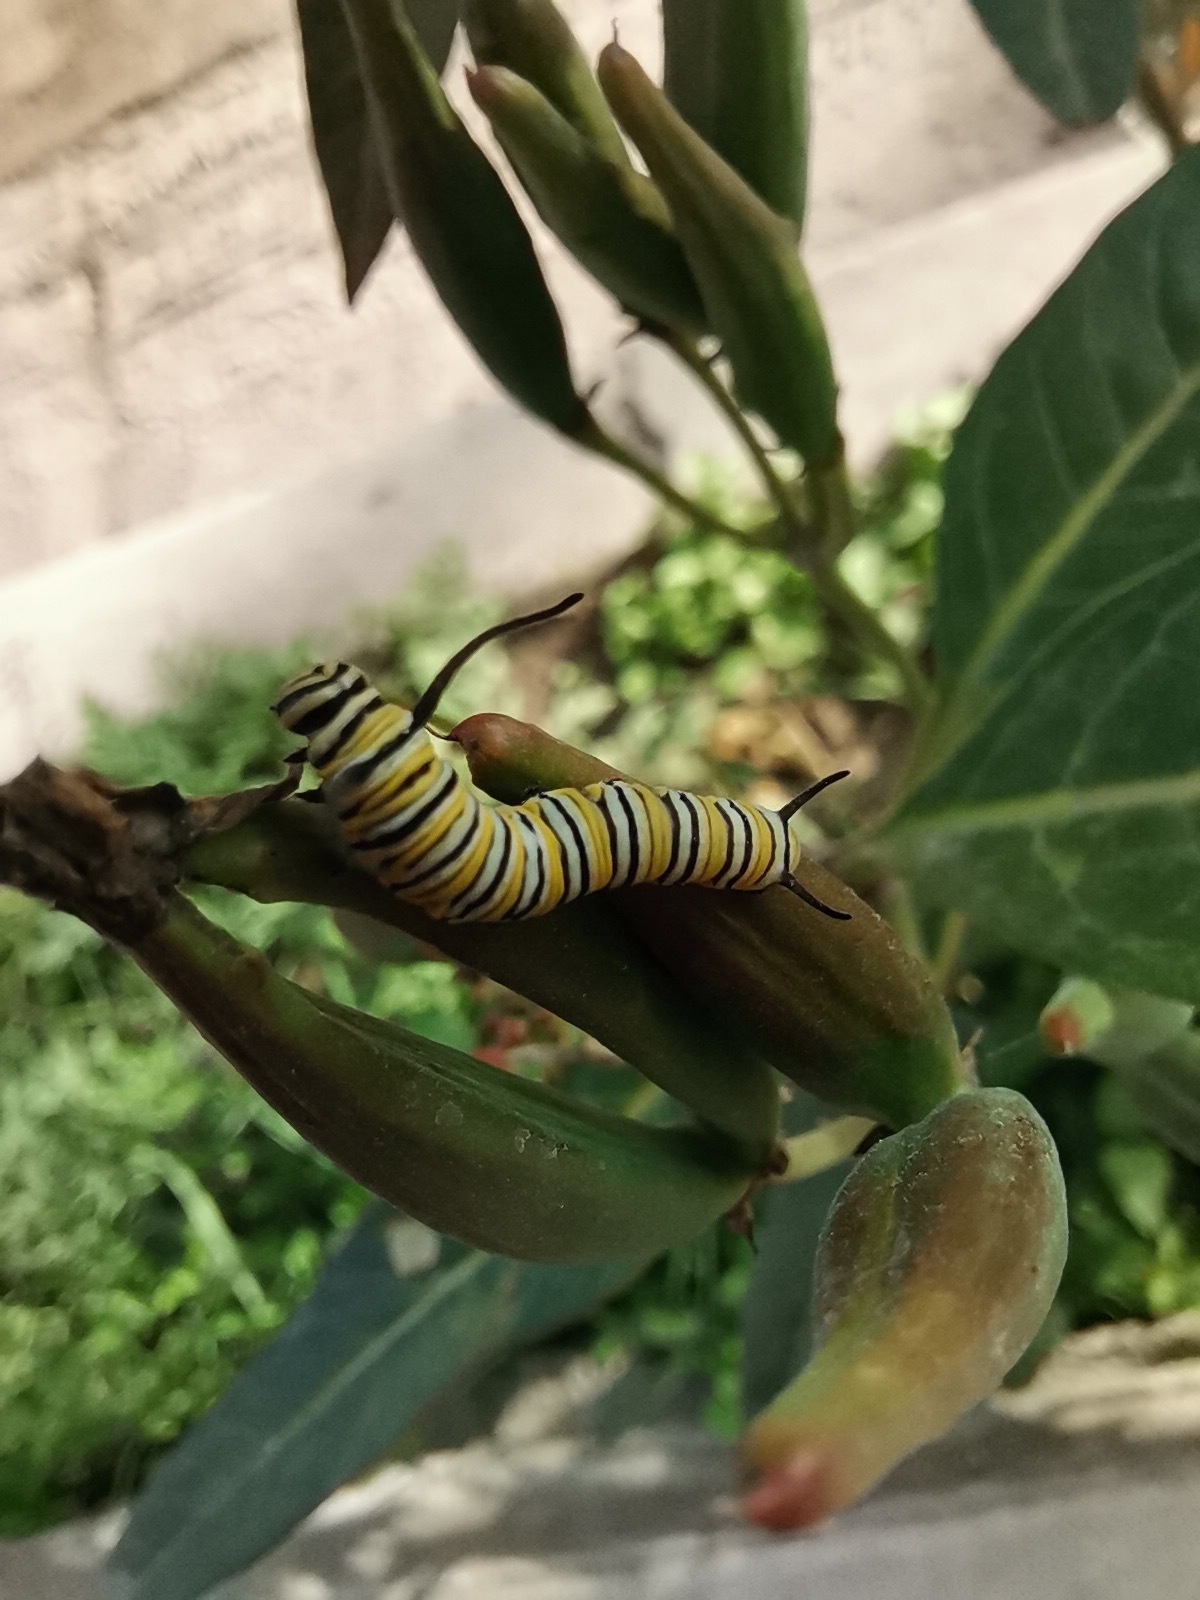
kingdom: Animalia
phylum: Arthropoda
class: Insecta
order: Lepidoptera
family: Nymphalidae
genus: Danaus
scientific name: Danaus plexippus
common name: Monarch
